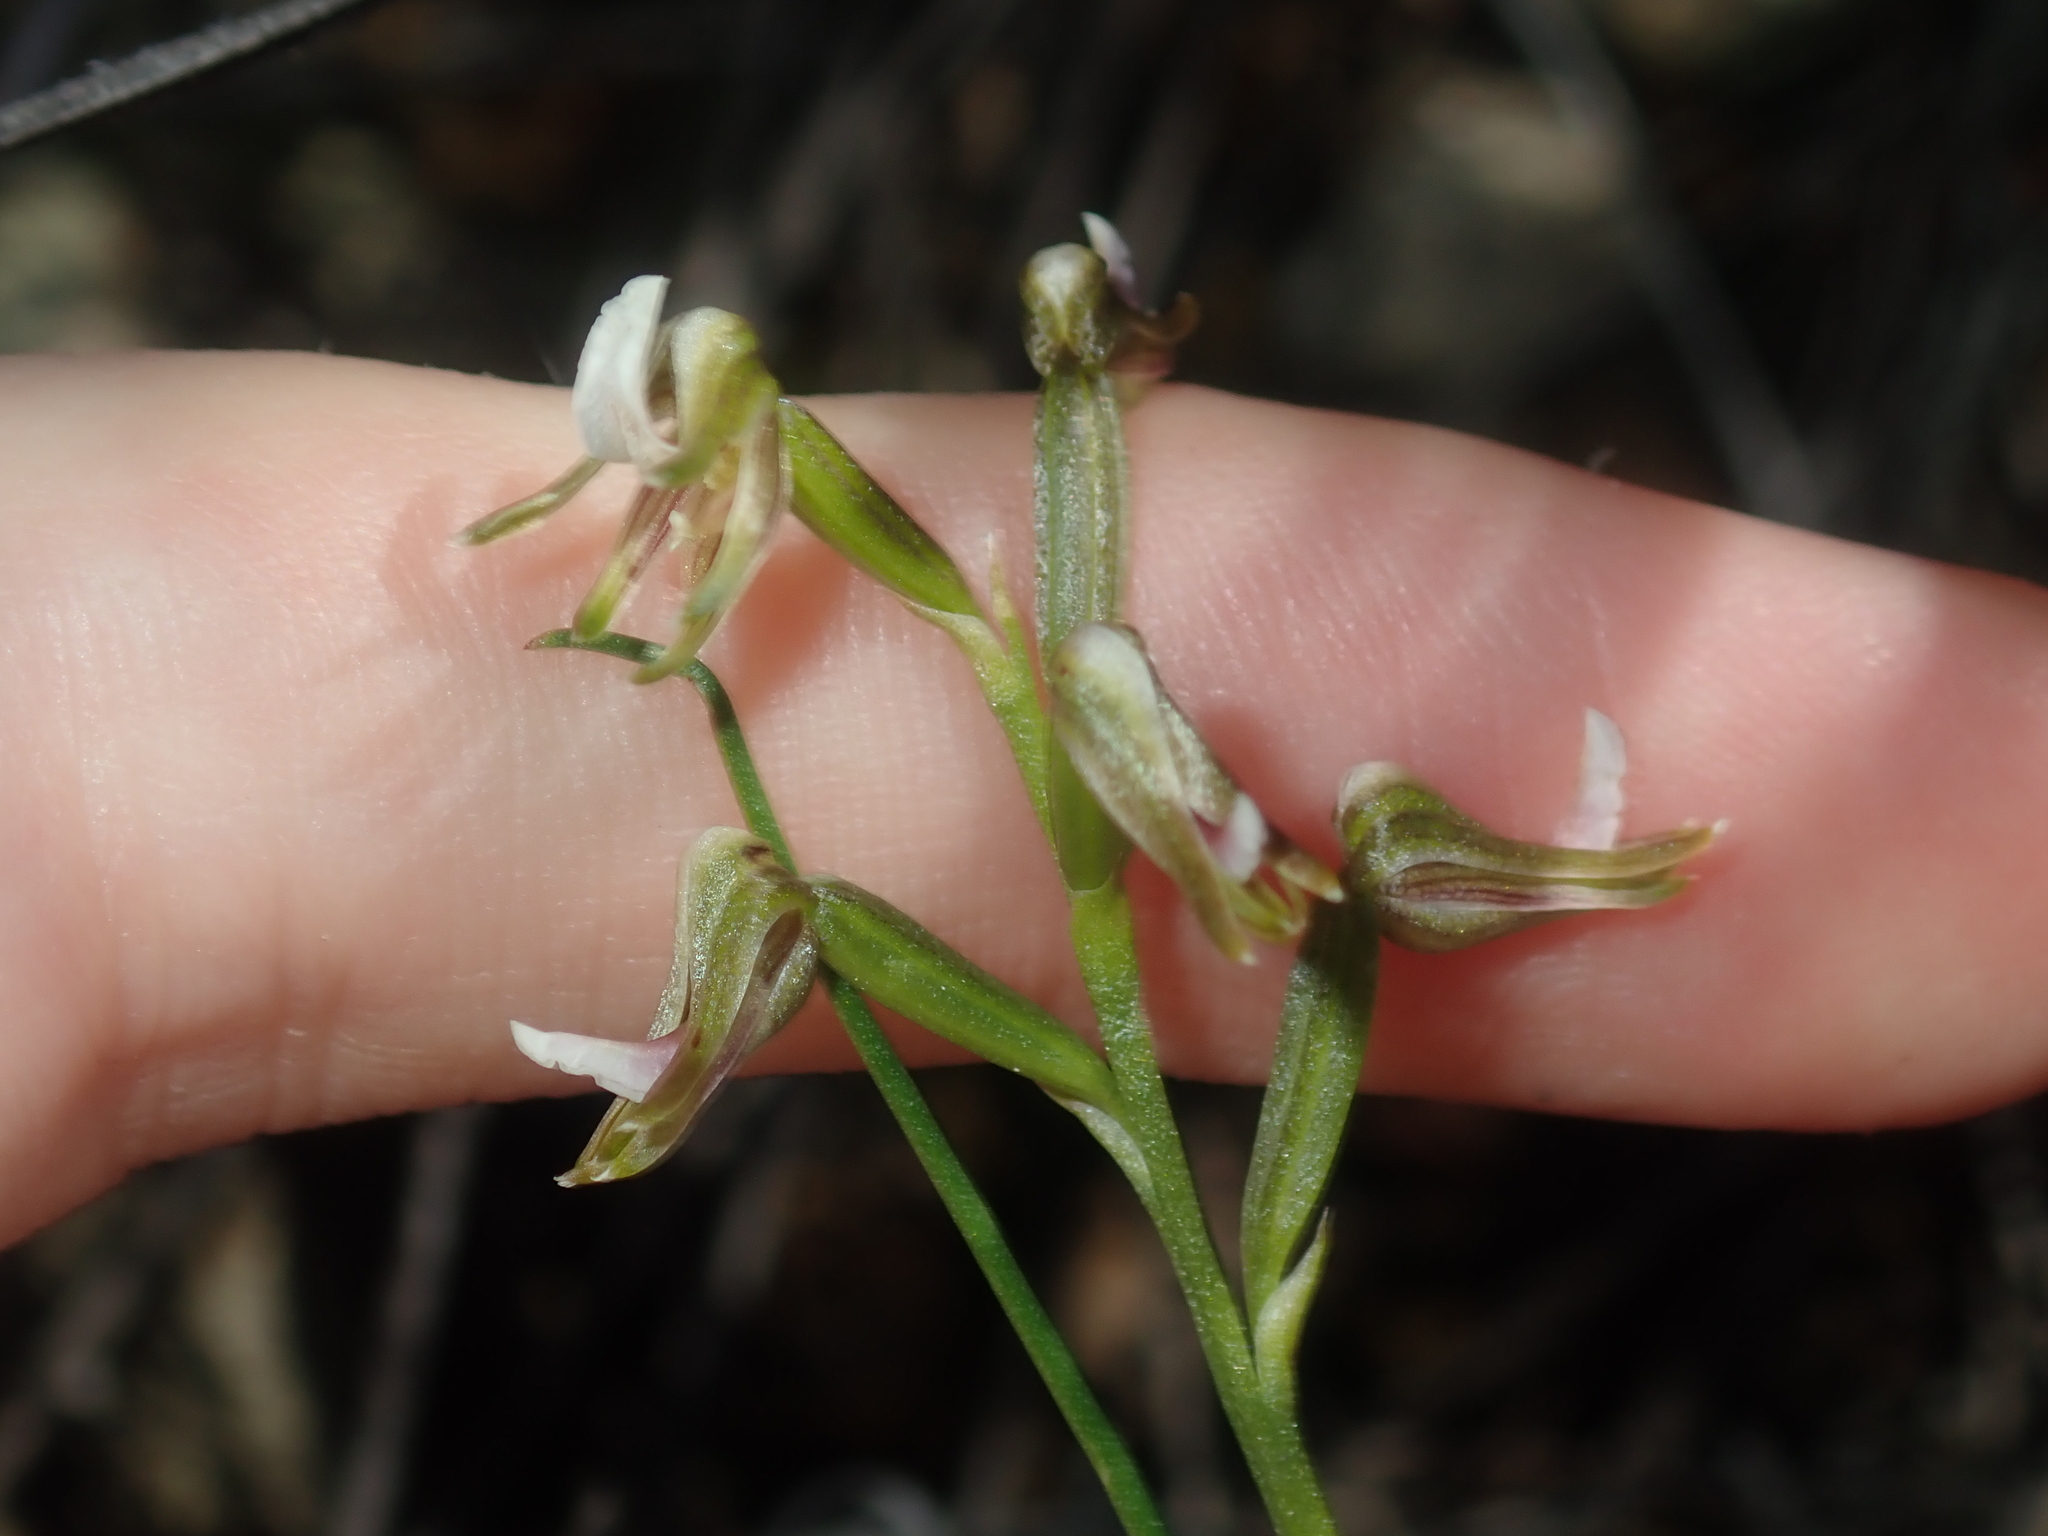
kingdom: Plantae
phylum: Tracheophyta
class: Liliopsida
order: Asparagales
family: Orchidaceae
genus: Prasophyllum
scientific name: Prasophyllum parvifolium
